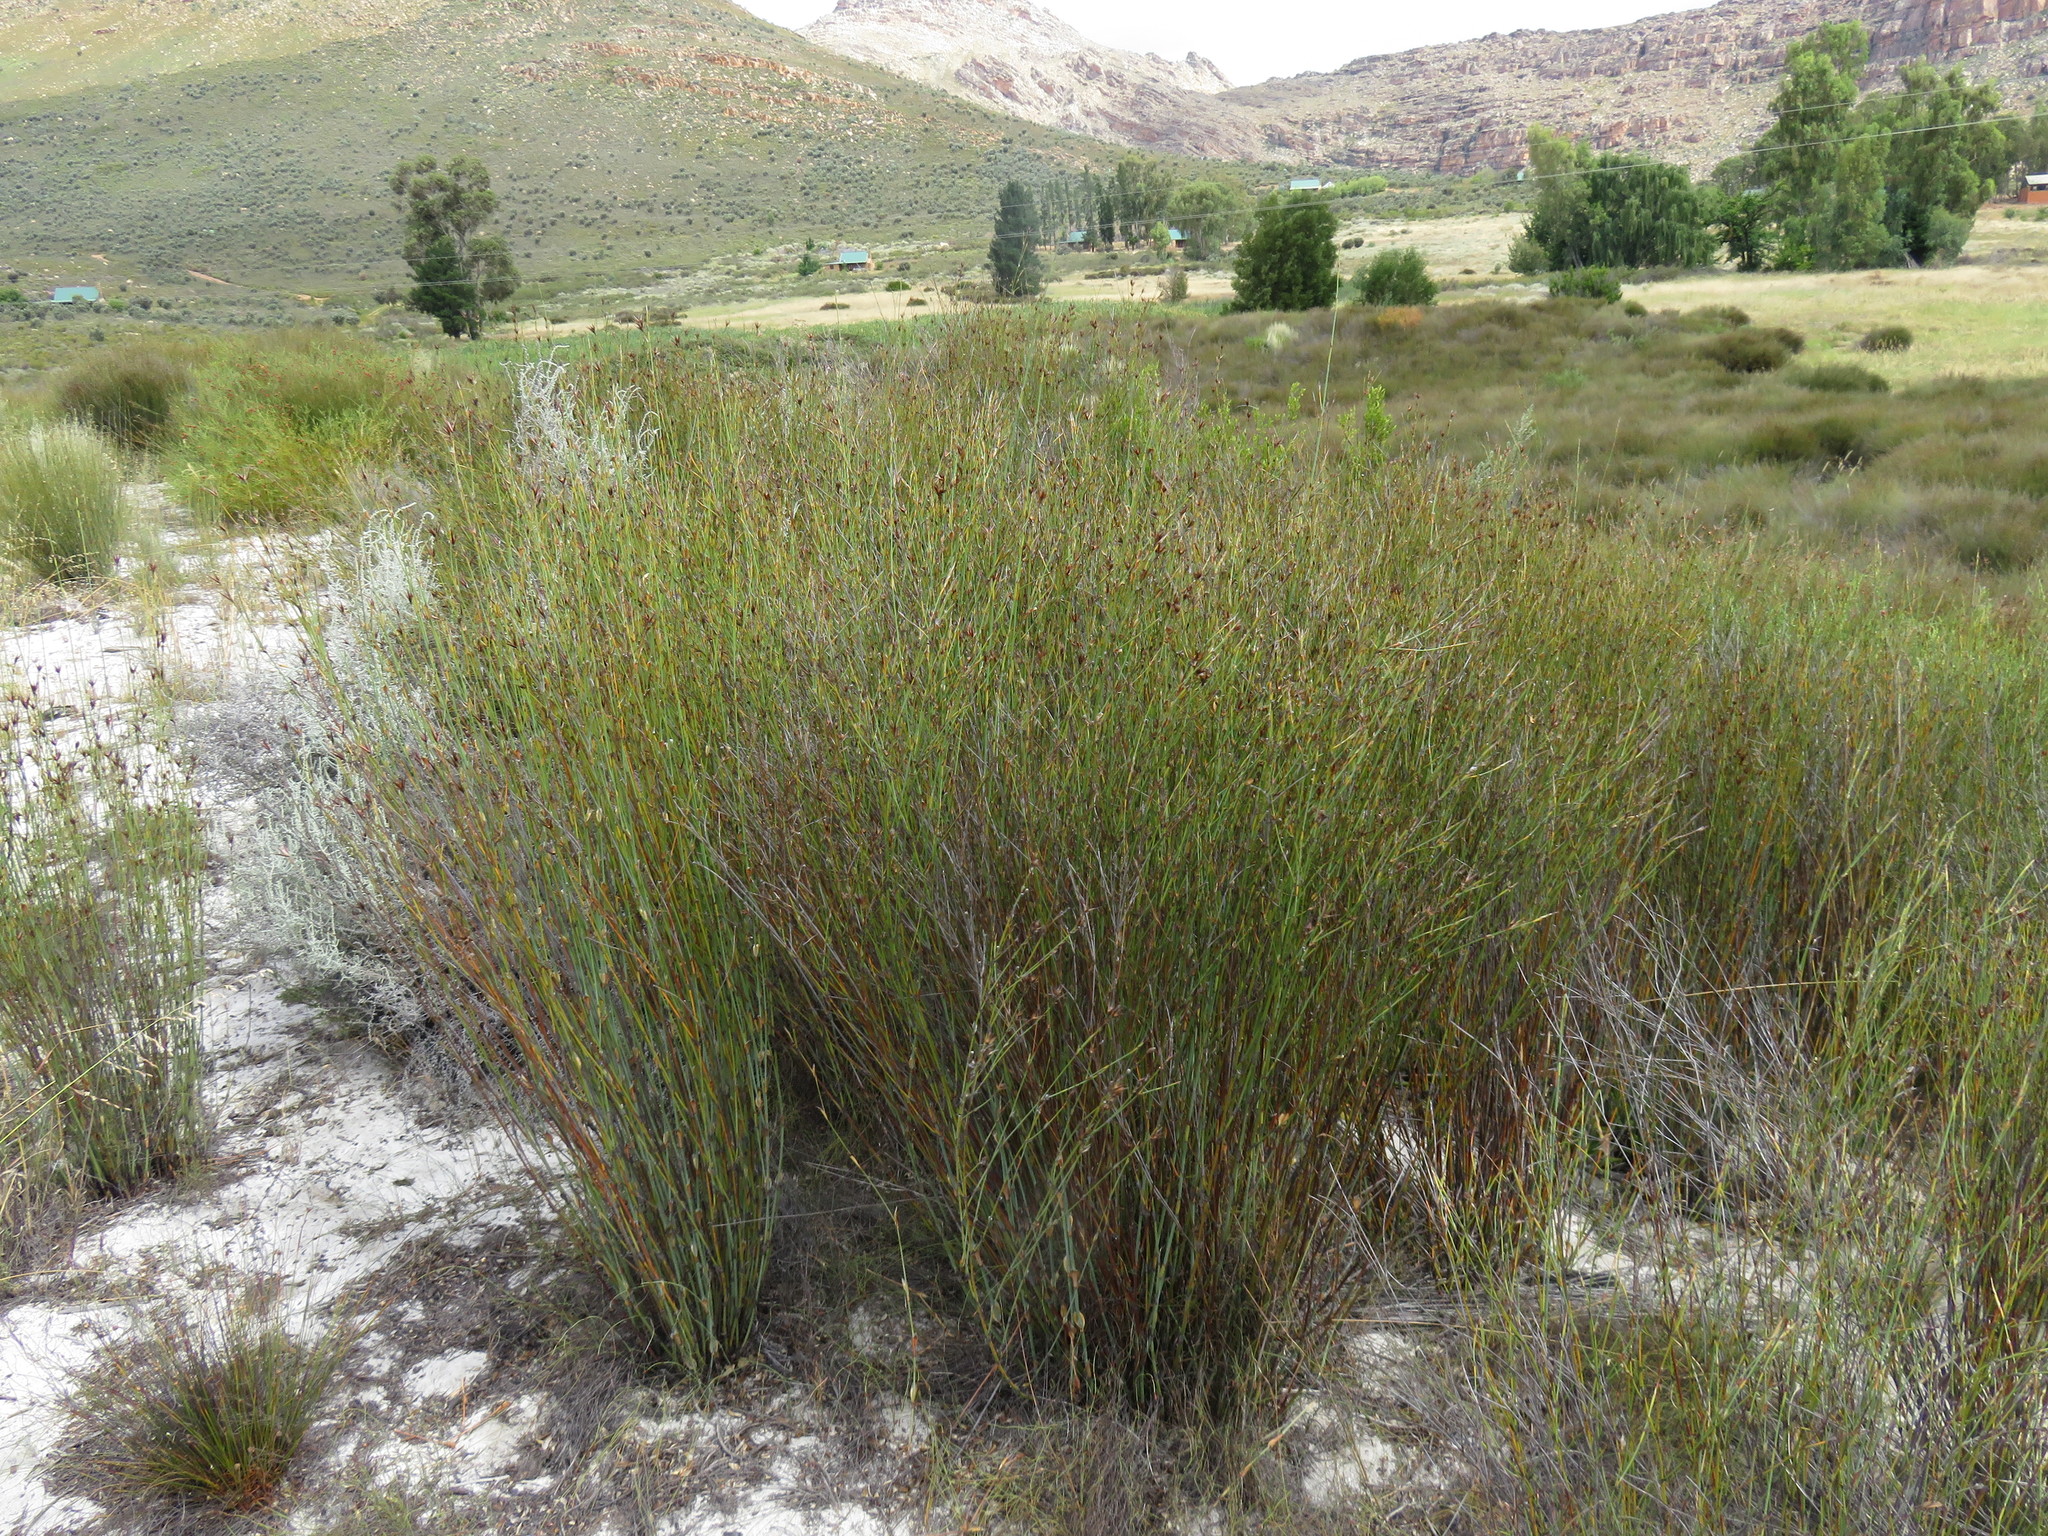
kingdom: Plantae
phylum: Tracheophyta
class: Liliopsida
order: Poales
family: Restionaceae
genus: Willdenowia
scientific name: Willdenowia incurvata
